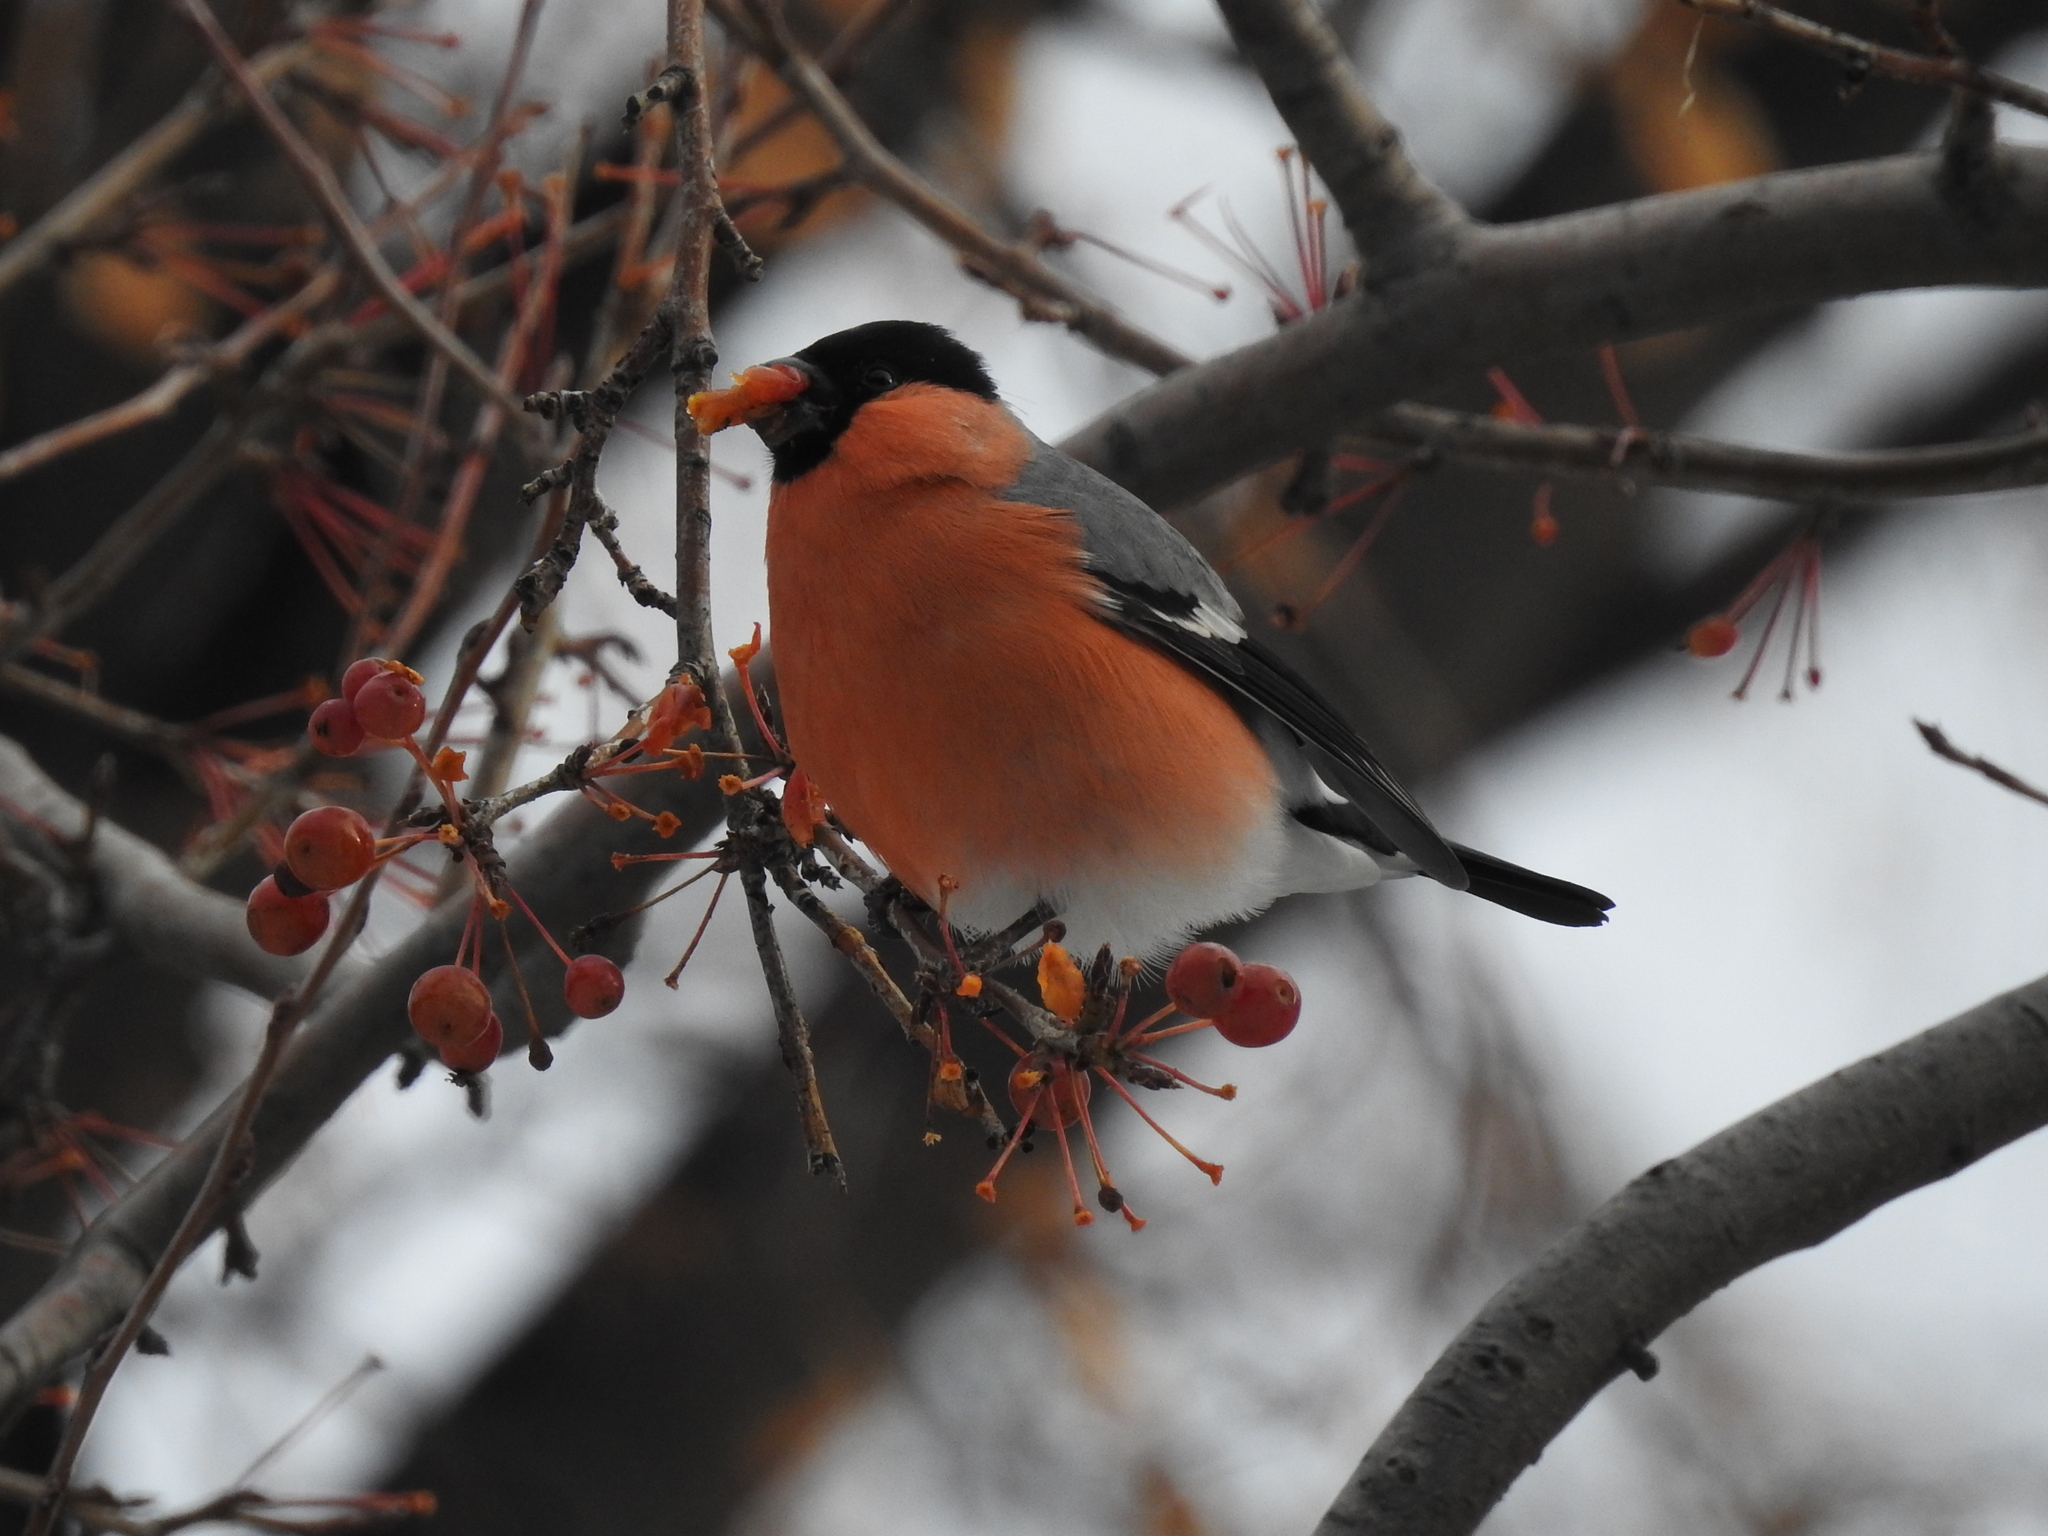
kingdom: Animalia
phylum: Chordata
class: Aves
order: Passeriformes
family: Fringillidae
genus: Pyrrhula
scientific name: Pyrrhula pyrrhula
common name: Eurasian bullfinch
